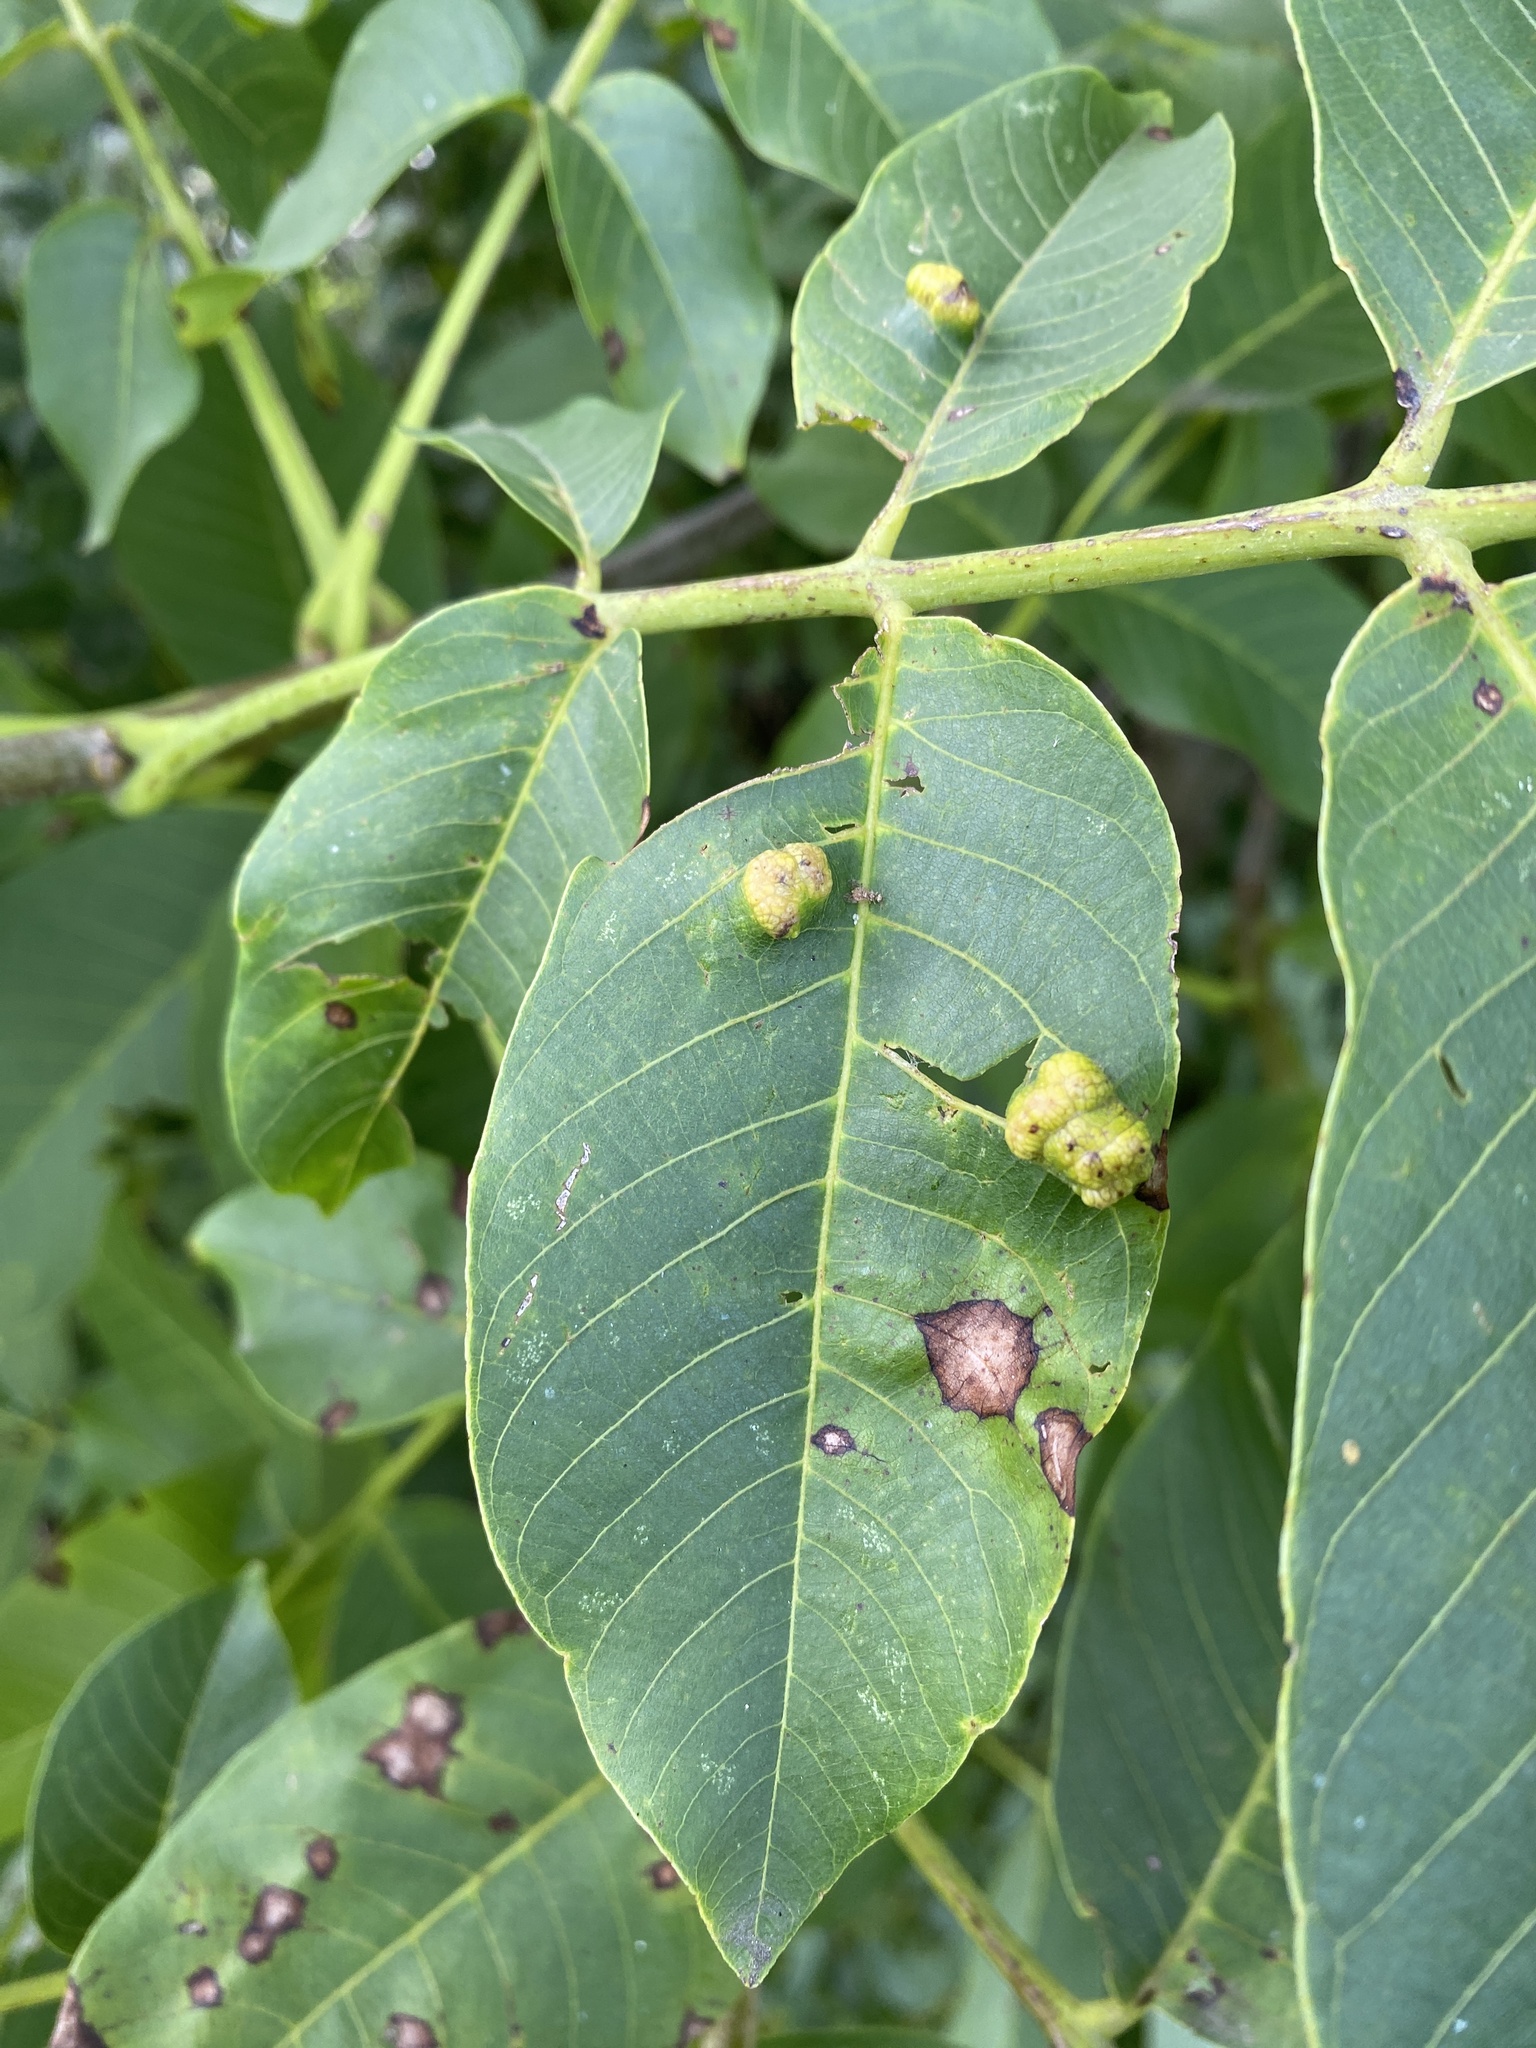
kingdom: Animalia
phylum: Arthropoda
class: Arachnida
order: Trombidiformes
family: Eriophyidae
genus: Aceria
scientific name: Aceria erinea
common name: Persian walnut erineum mite
